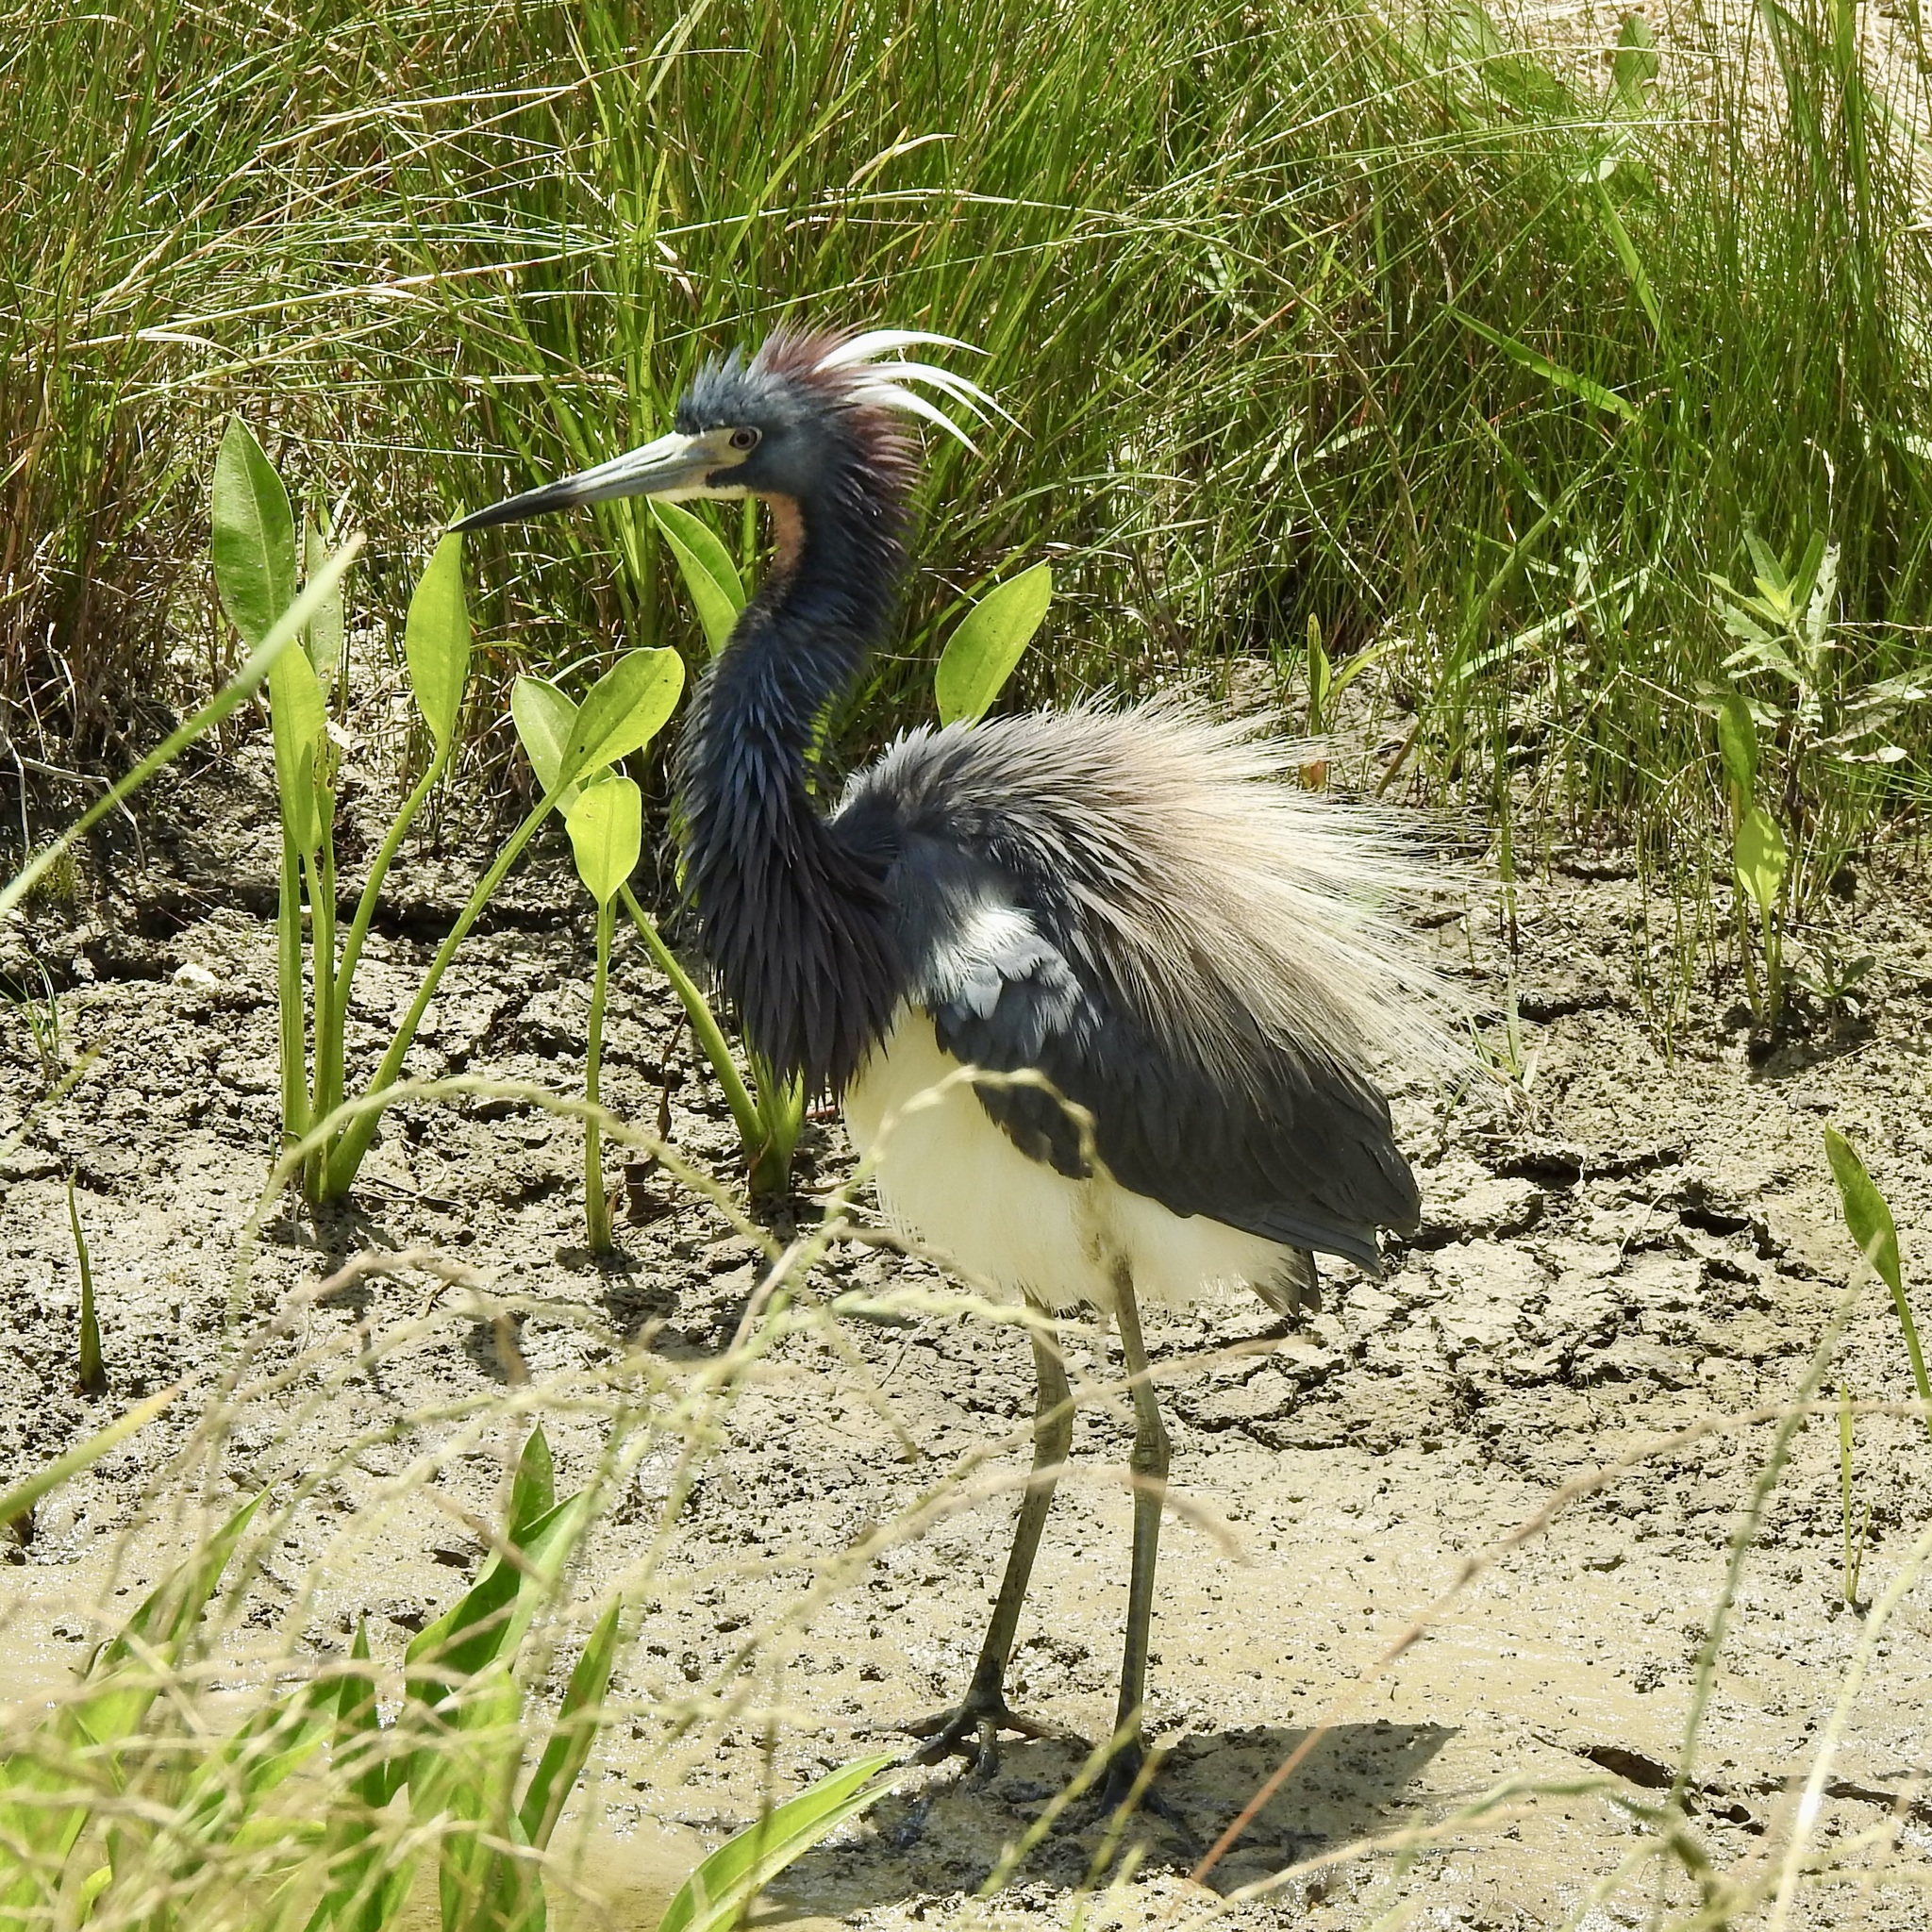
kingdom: Animalia
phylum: Chordata
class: Aves
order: Pelecaniformes
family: Ardeidae
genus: Egretta
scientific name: Egretta tricolor
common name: Tricolored heron
